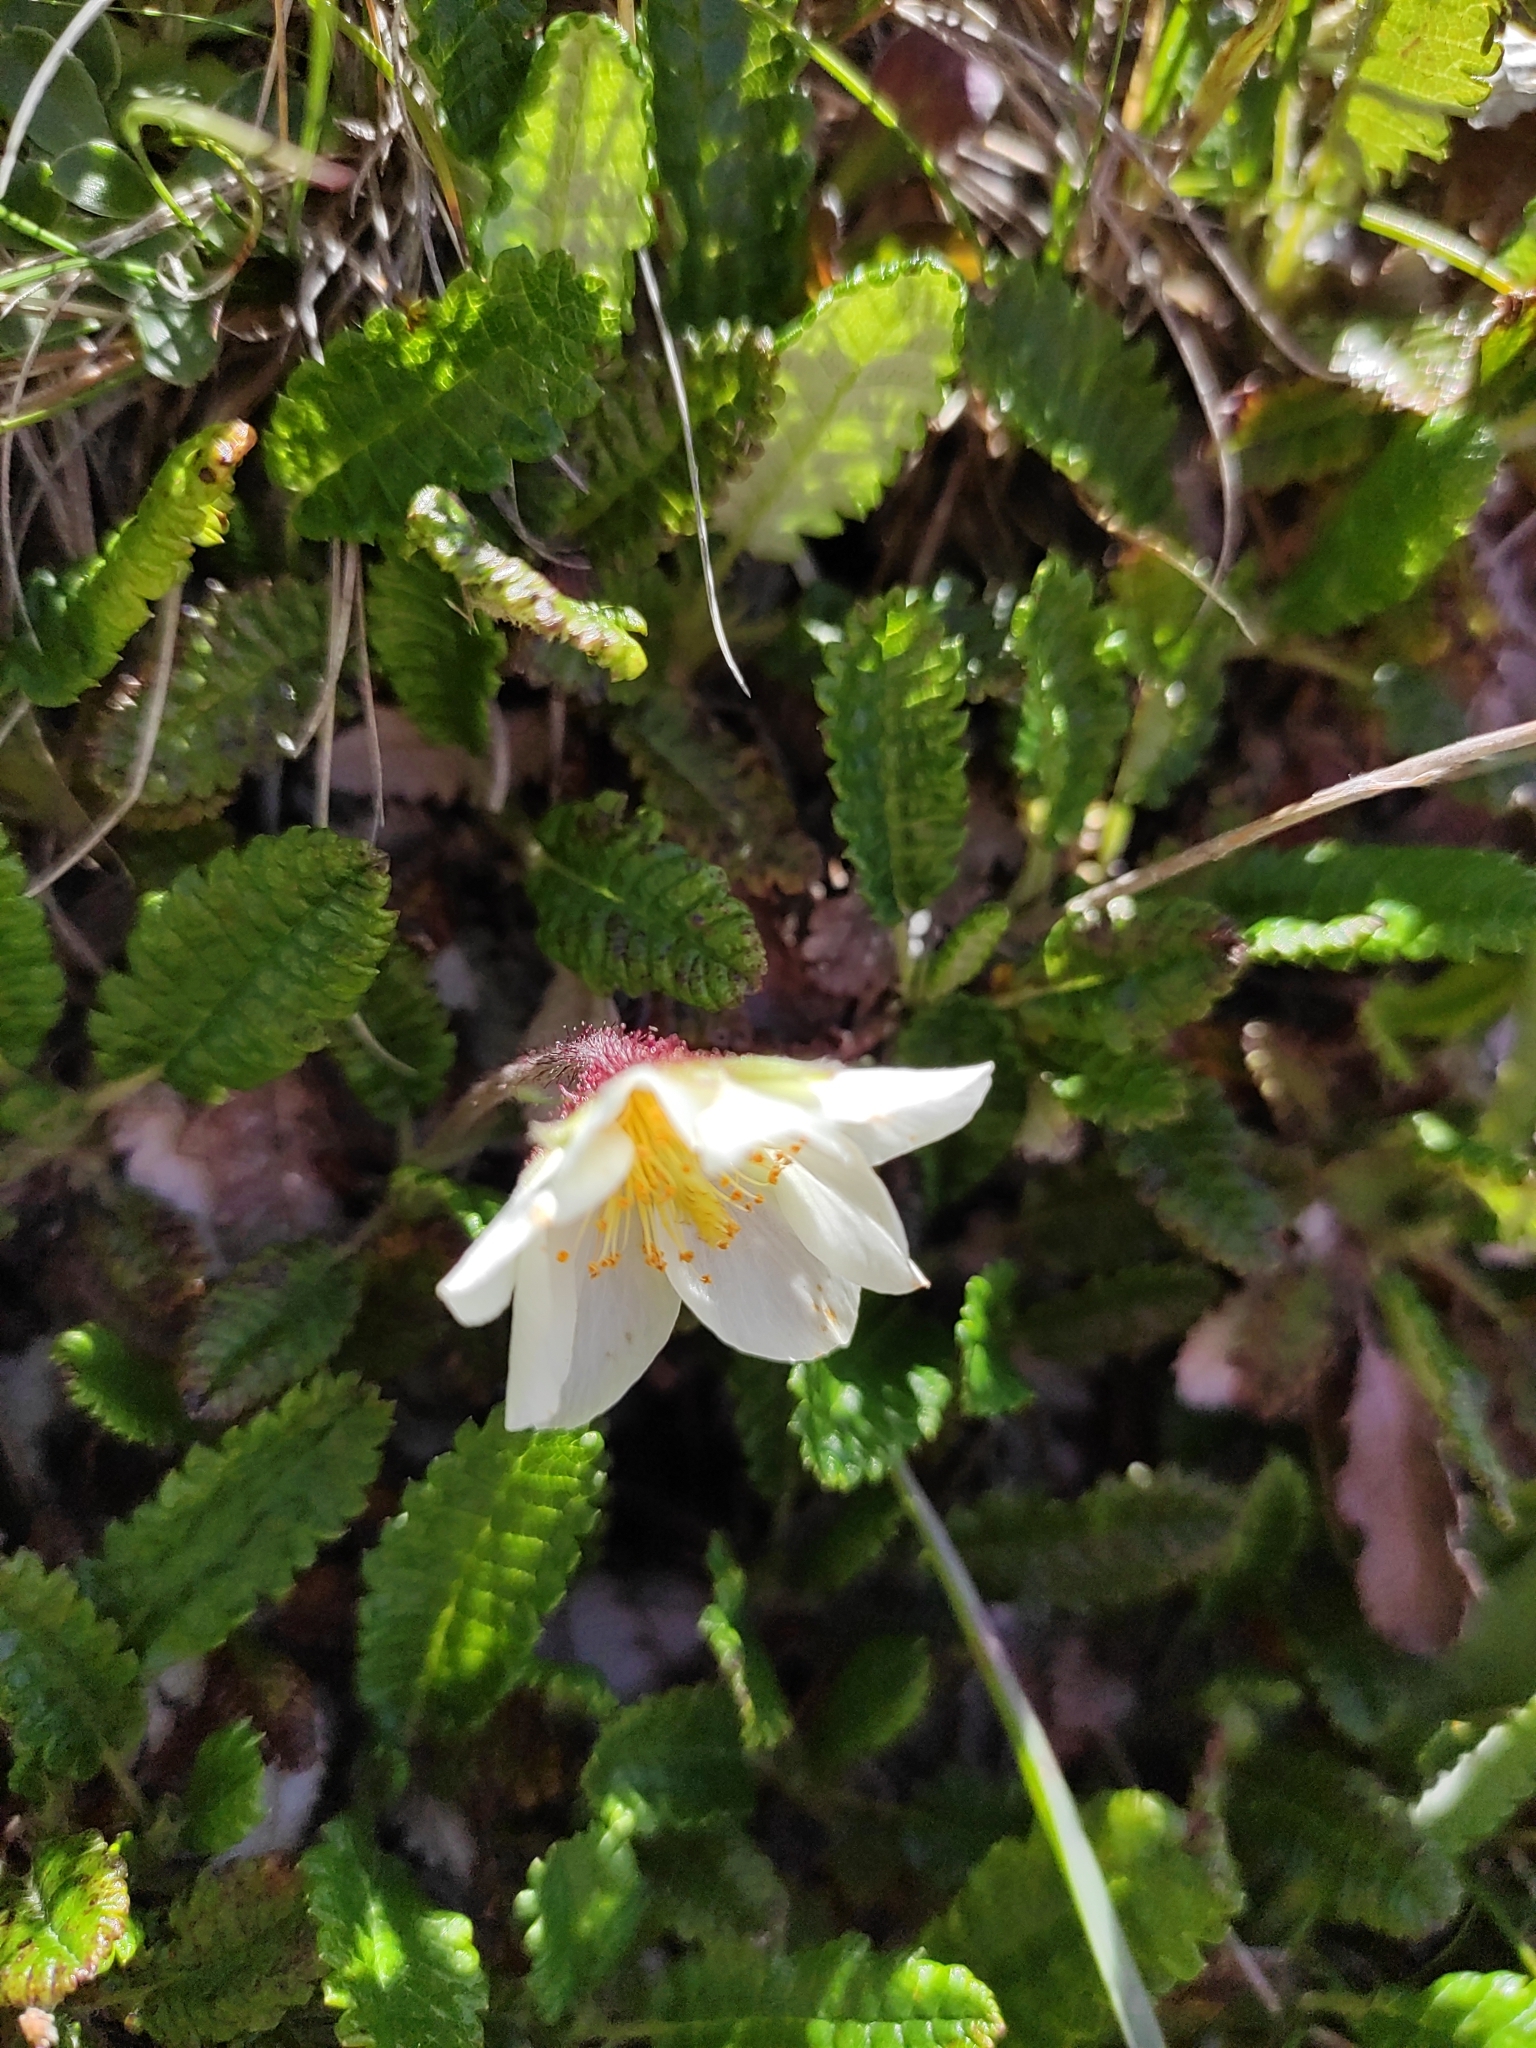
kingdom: Plantae
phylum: Tracheophyta
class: Magnoliopsida
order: Rosales
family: Rosaceae
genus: Dryas
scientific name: Dryas octopetala
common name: Eight-petal mountain-avens
